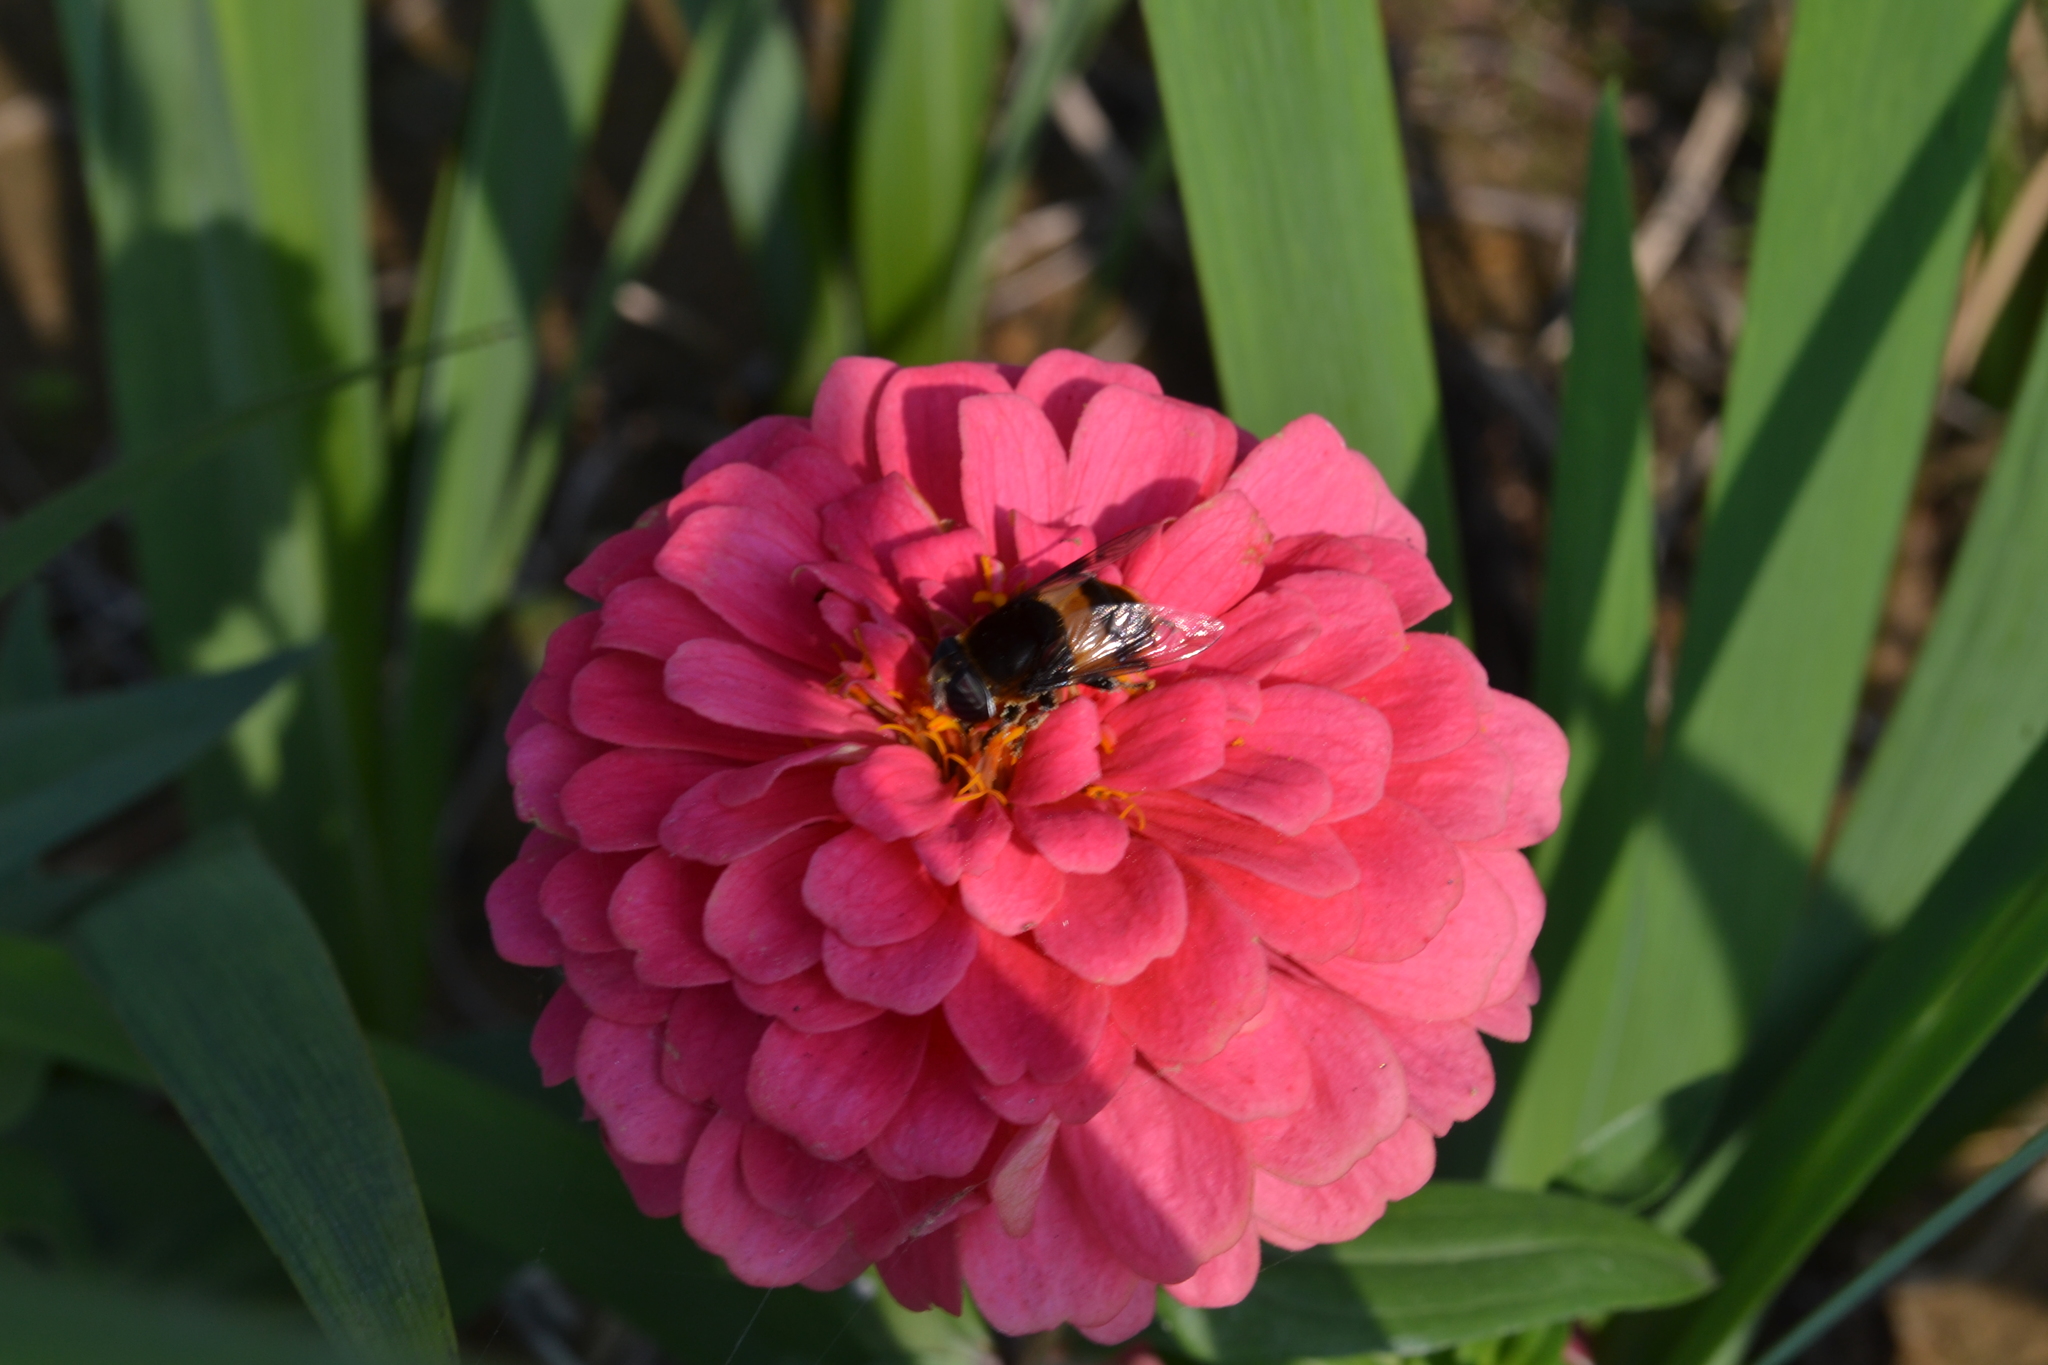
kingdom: Animalia
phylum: Arthropoda
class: Insecta
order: Diptera
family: Syrphidae
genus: Phytomia
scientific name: Phytomia zonata
